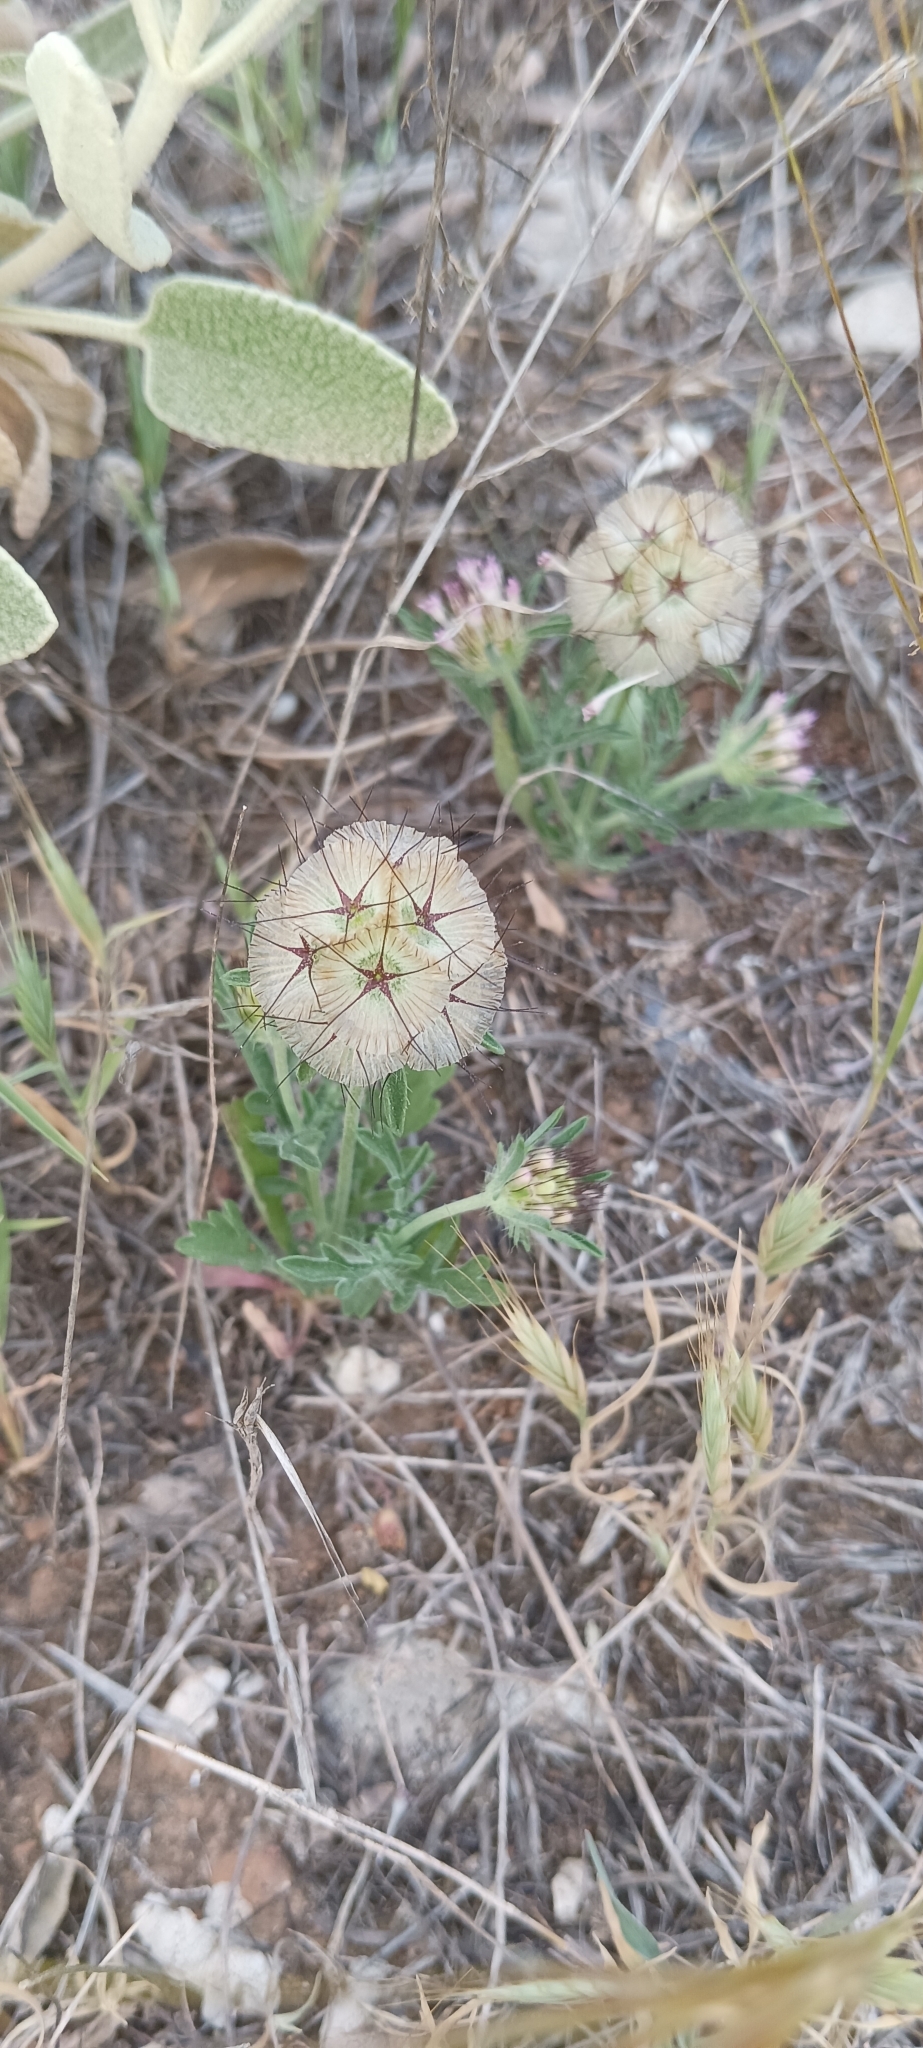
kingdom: Plantae
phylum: Tracheophyta
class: Magnoliopsida
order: Dipsacales
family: Caprifoliaceae
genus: Lomelosia
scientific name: Lomelosia stellata
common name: Teasel
